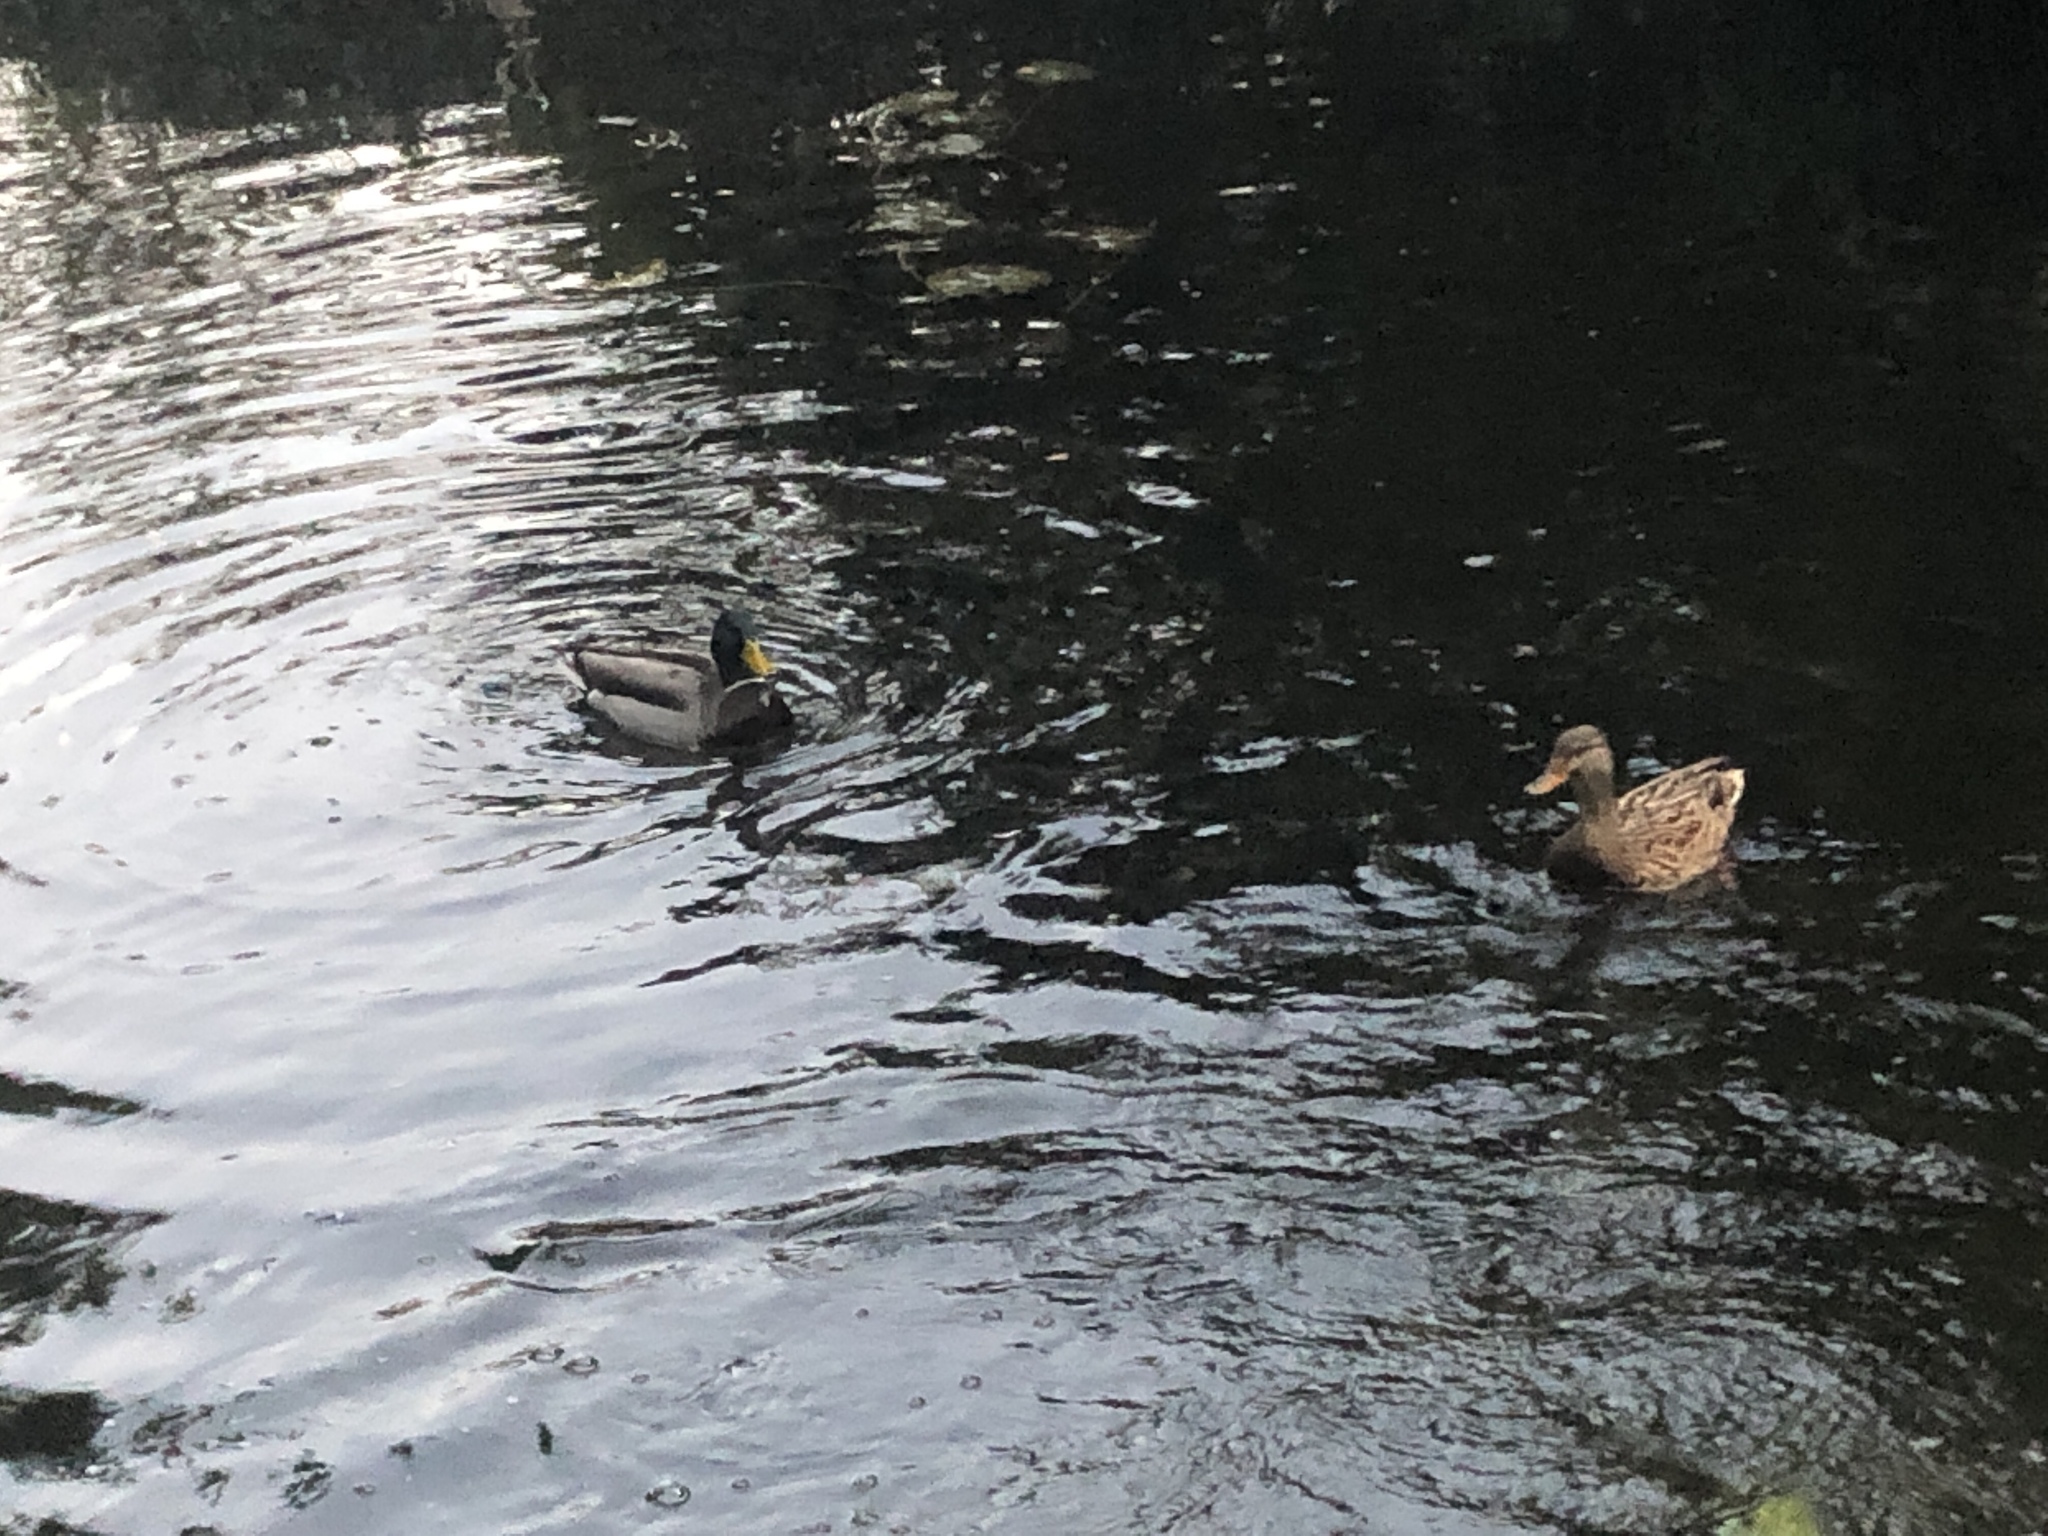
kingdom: Animalia
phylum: Chordata
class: Aves
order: Anseriformes
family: Anatidae
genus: Anas
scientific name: Anas platyrhynchos
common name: Mallard
